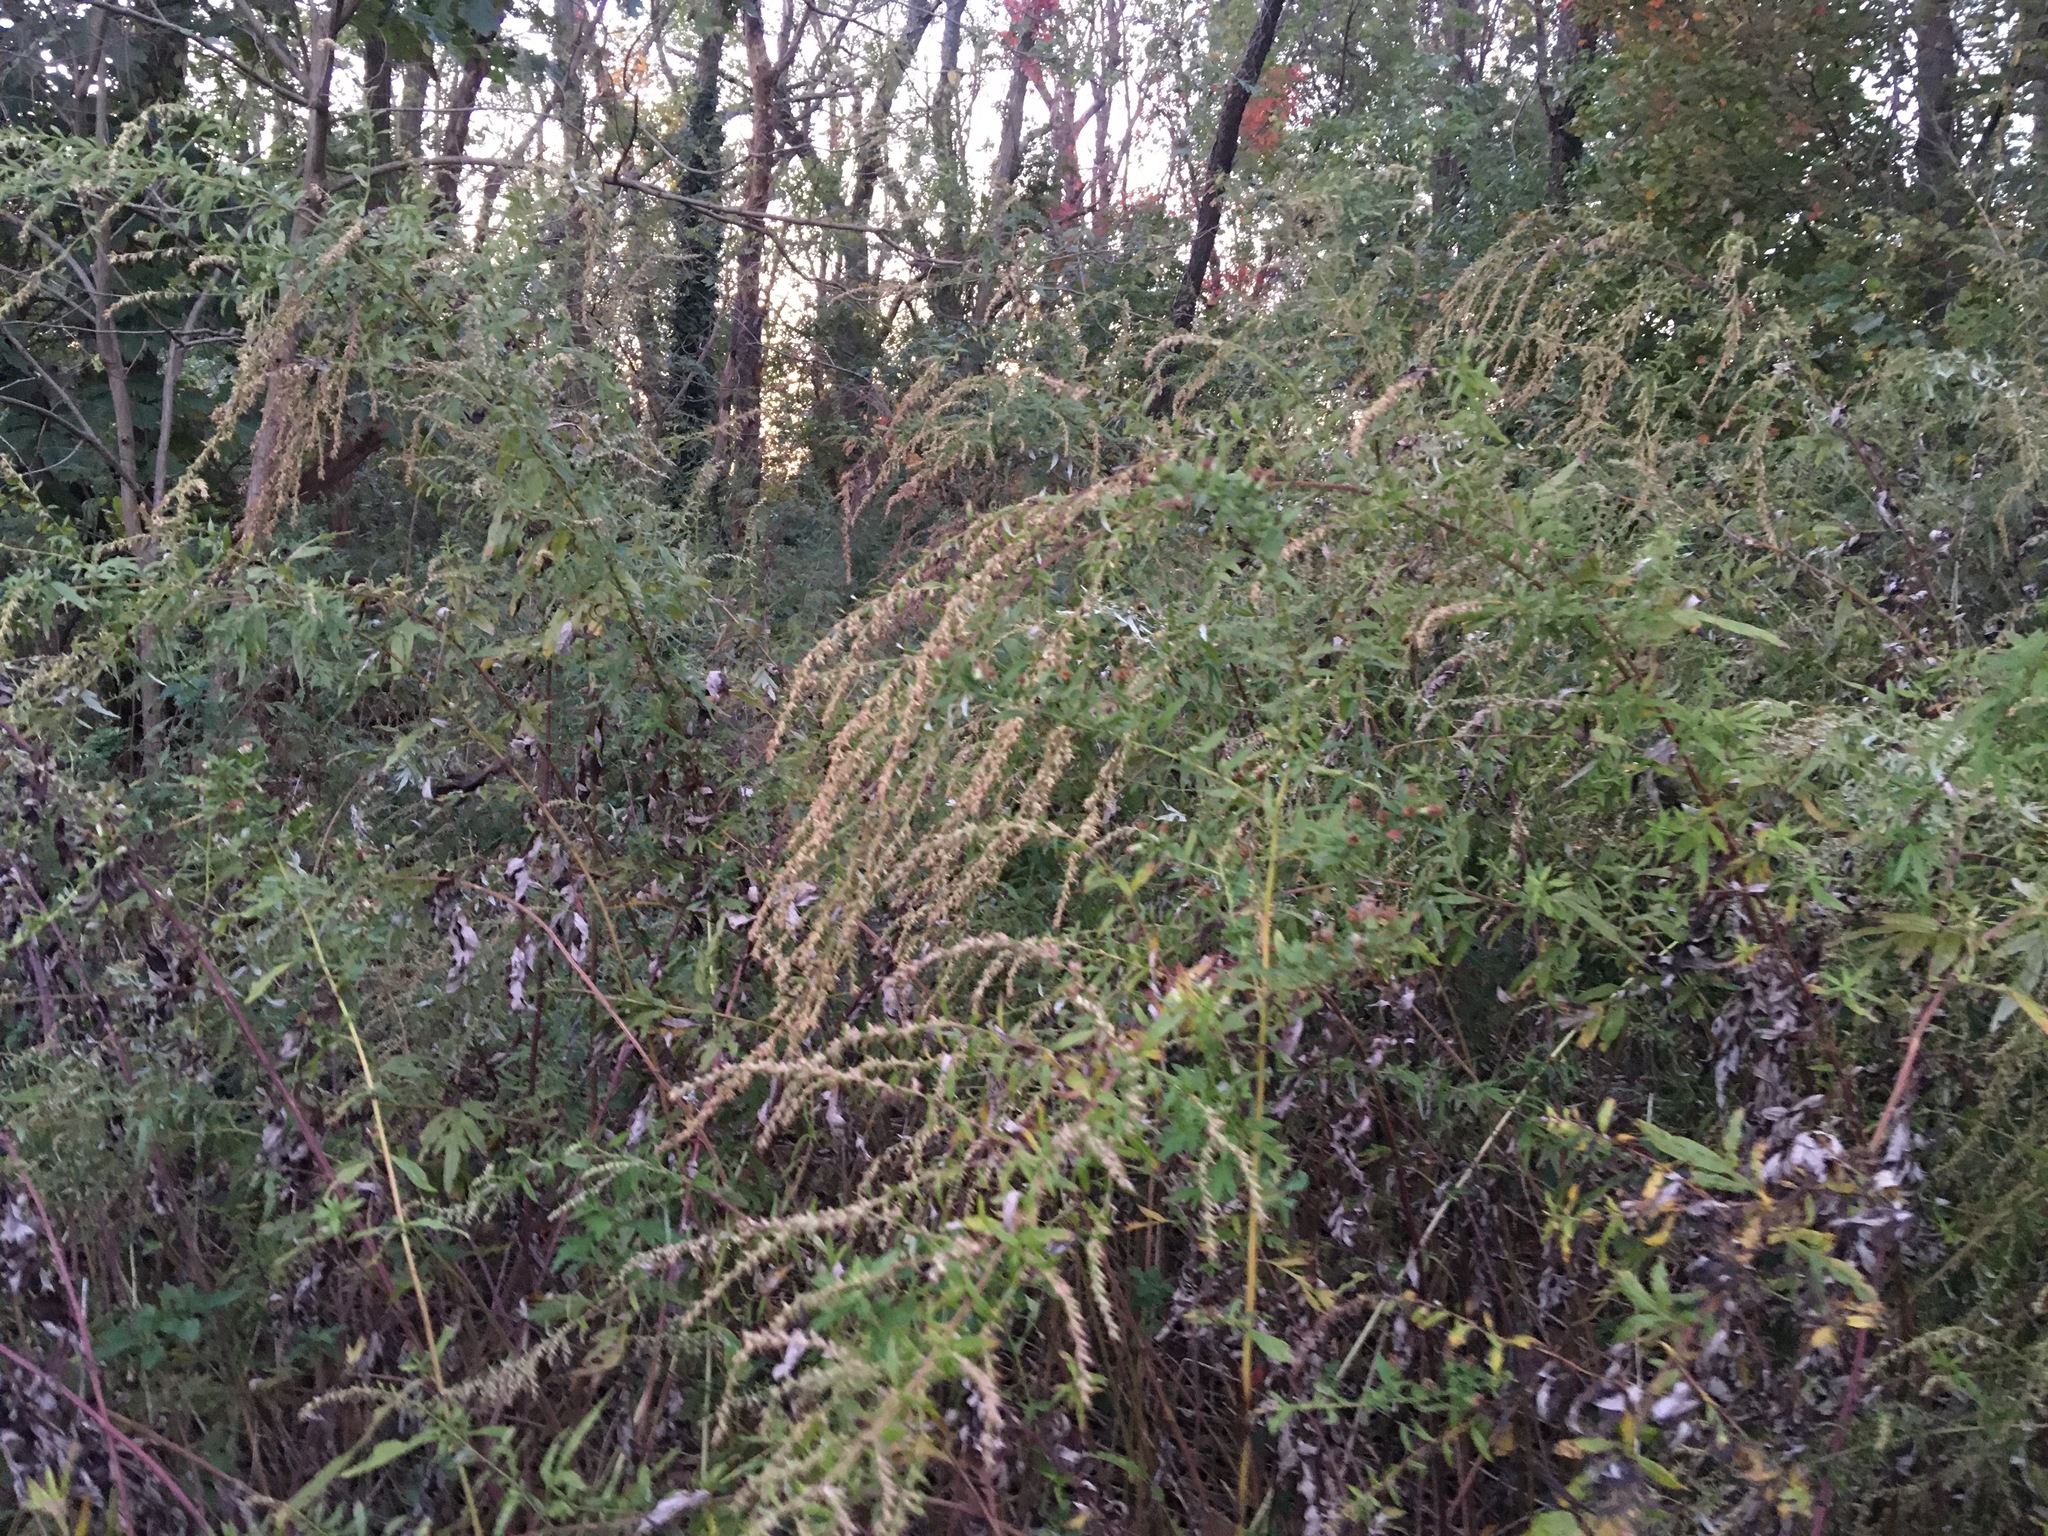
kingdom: Plantae
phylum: Tracheophyta
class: Magnoliopsida
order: Asterales
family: Asteraceae
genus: Artemisia
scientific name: Artemisia vulgaris
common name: Mugwort
